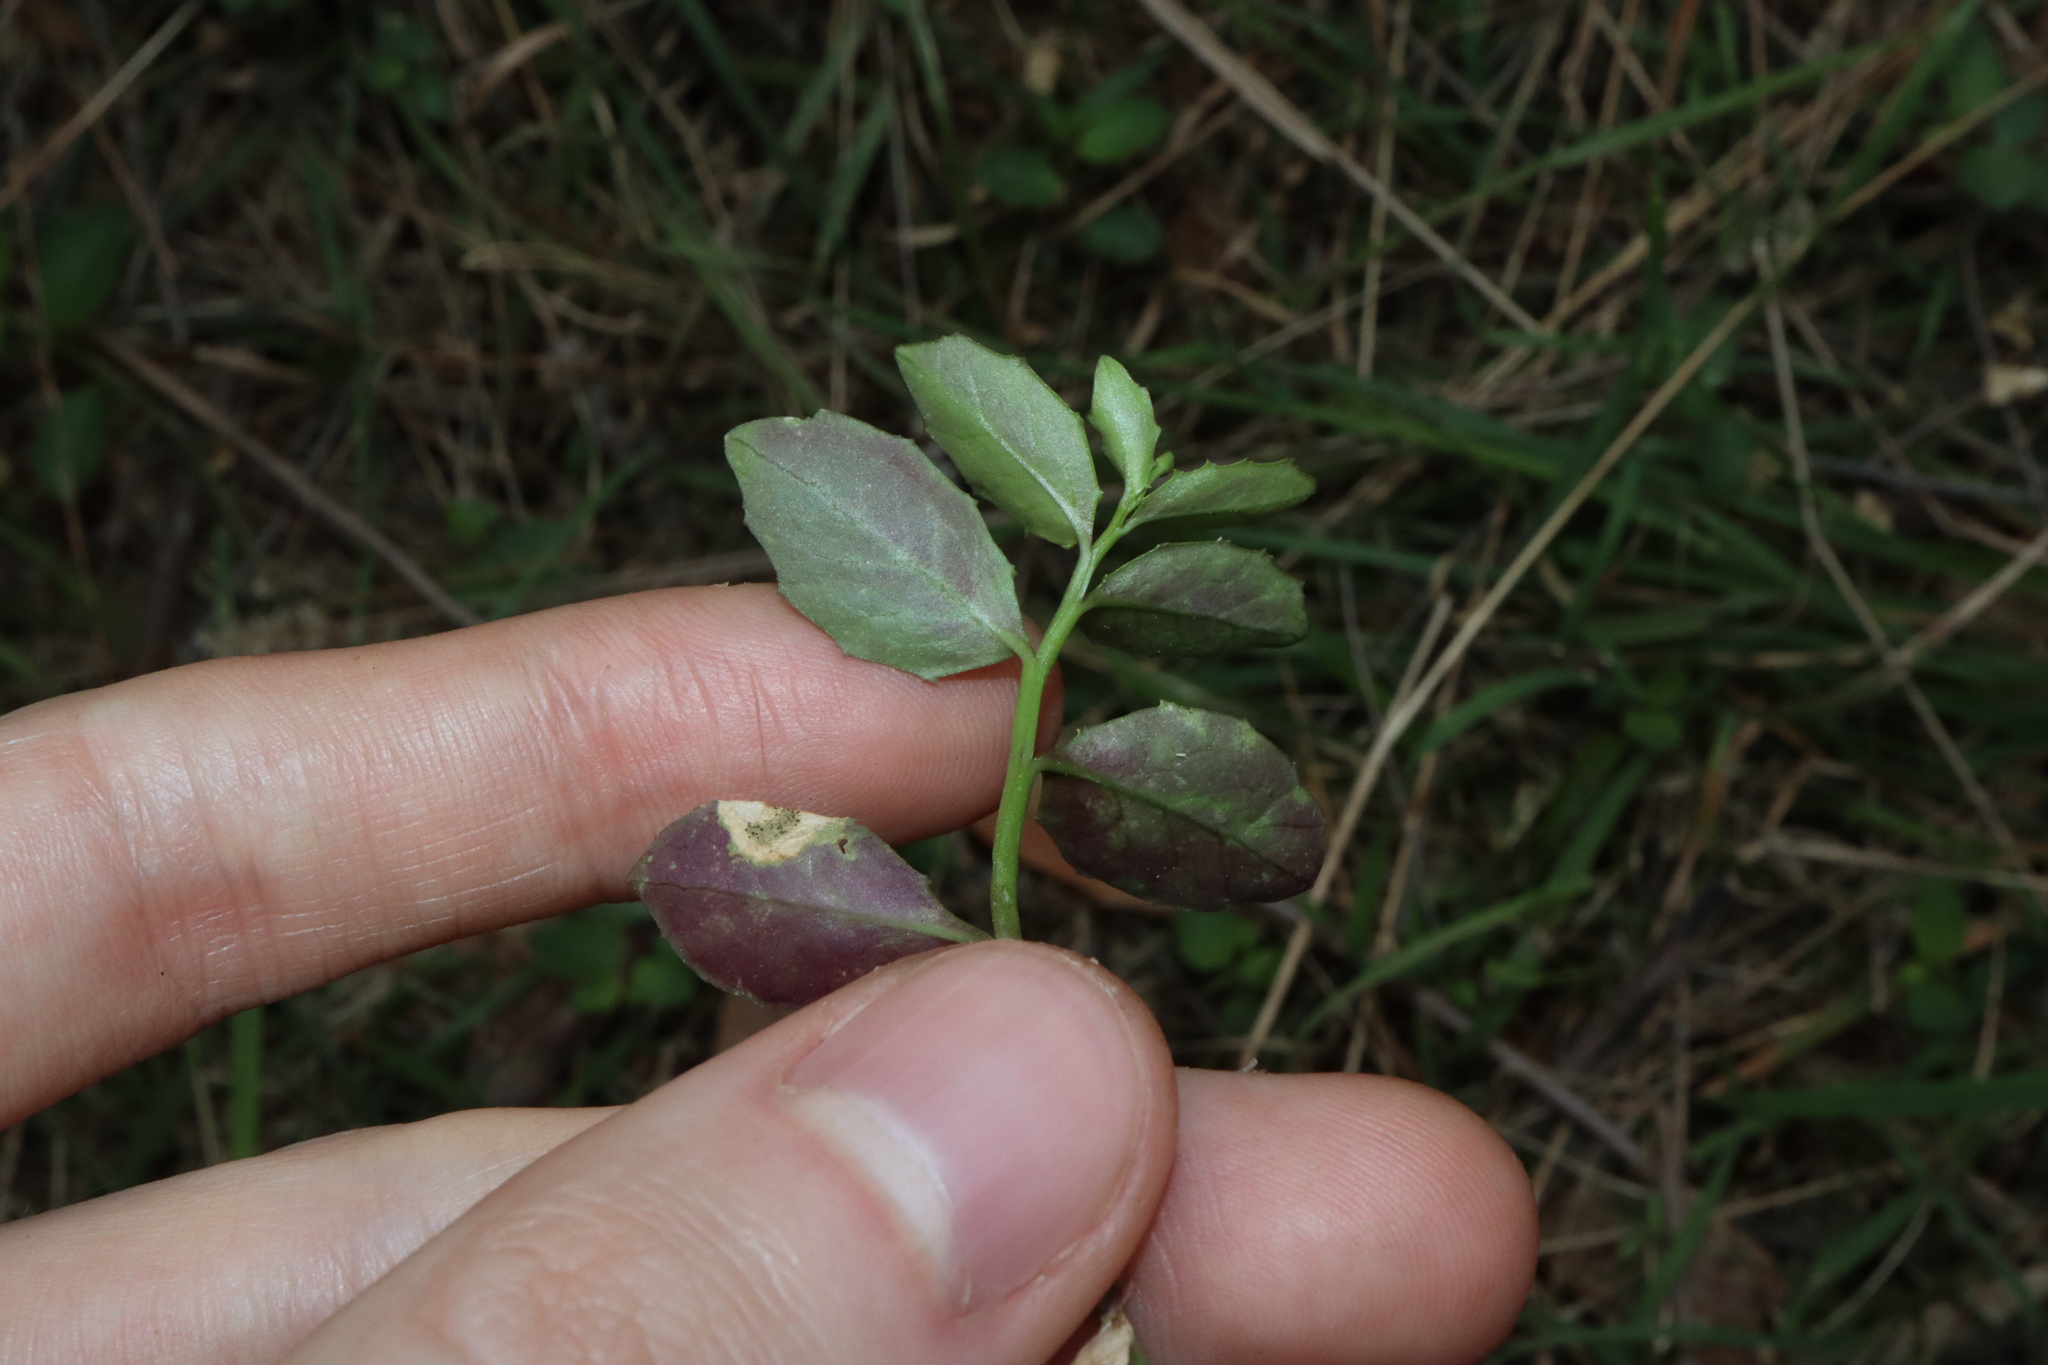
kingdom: Plantae
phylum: Tracheophyta
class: Magnoliopsida
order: Asterales
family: Campanulaceae
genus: Lobelia
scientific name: Lobelia purpurascens
